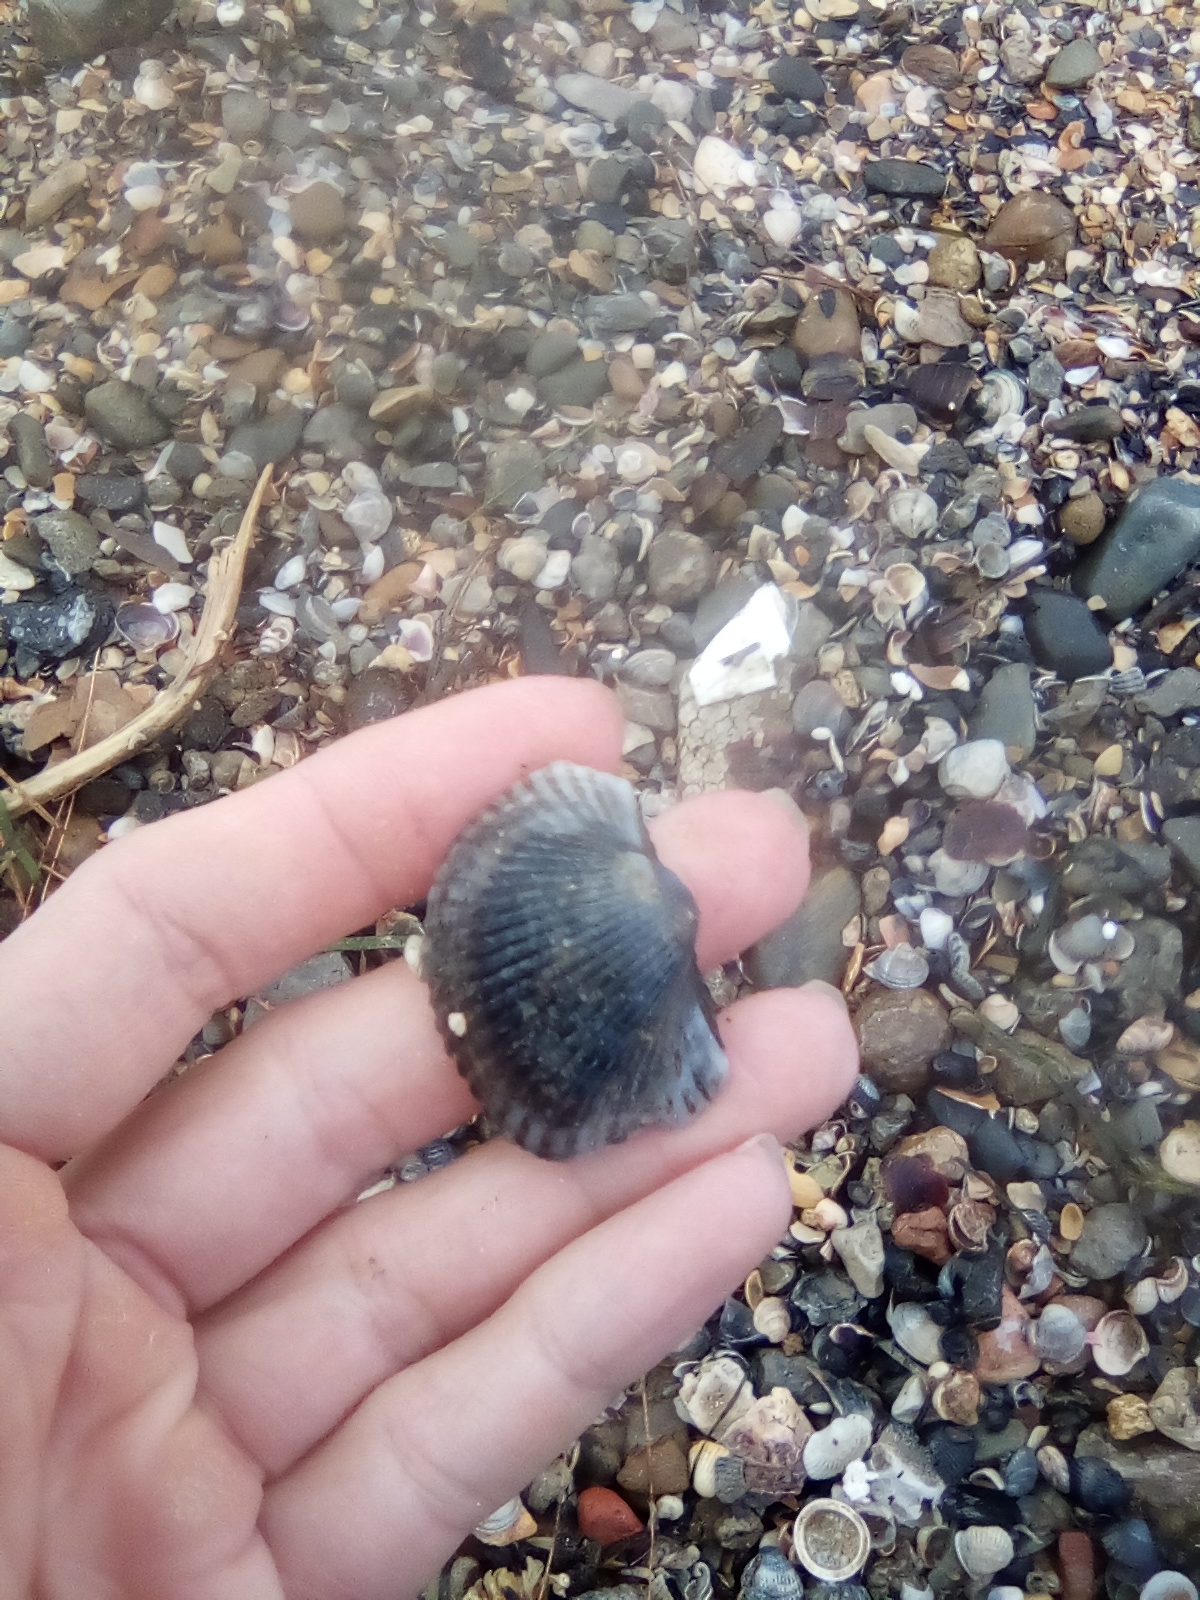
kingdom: Animalia
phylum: Mollusca
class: Bivalvia
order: Arcida
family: Arcidae
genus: Anadara
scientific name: Anadara kagoshimensis
